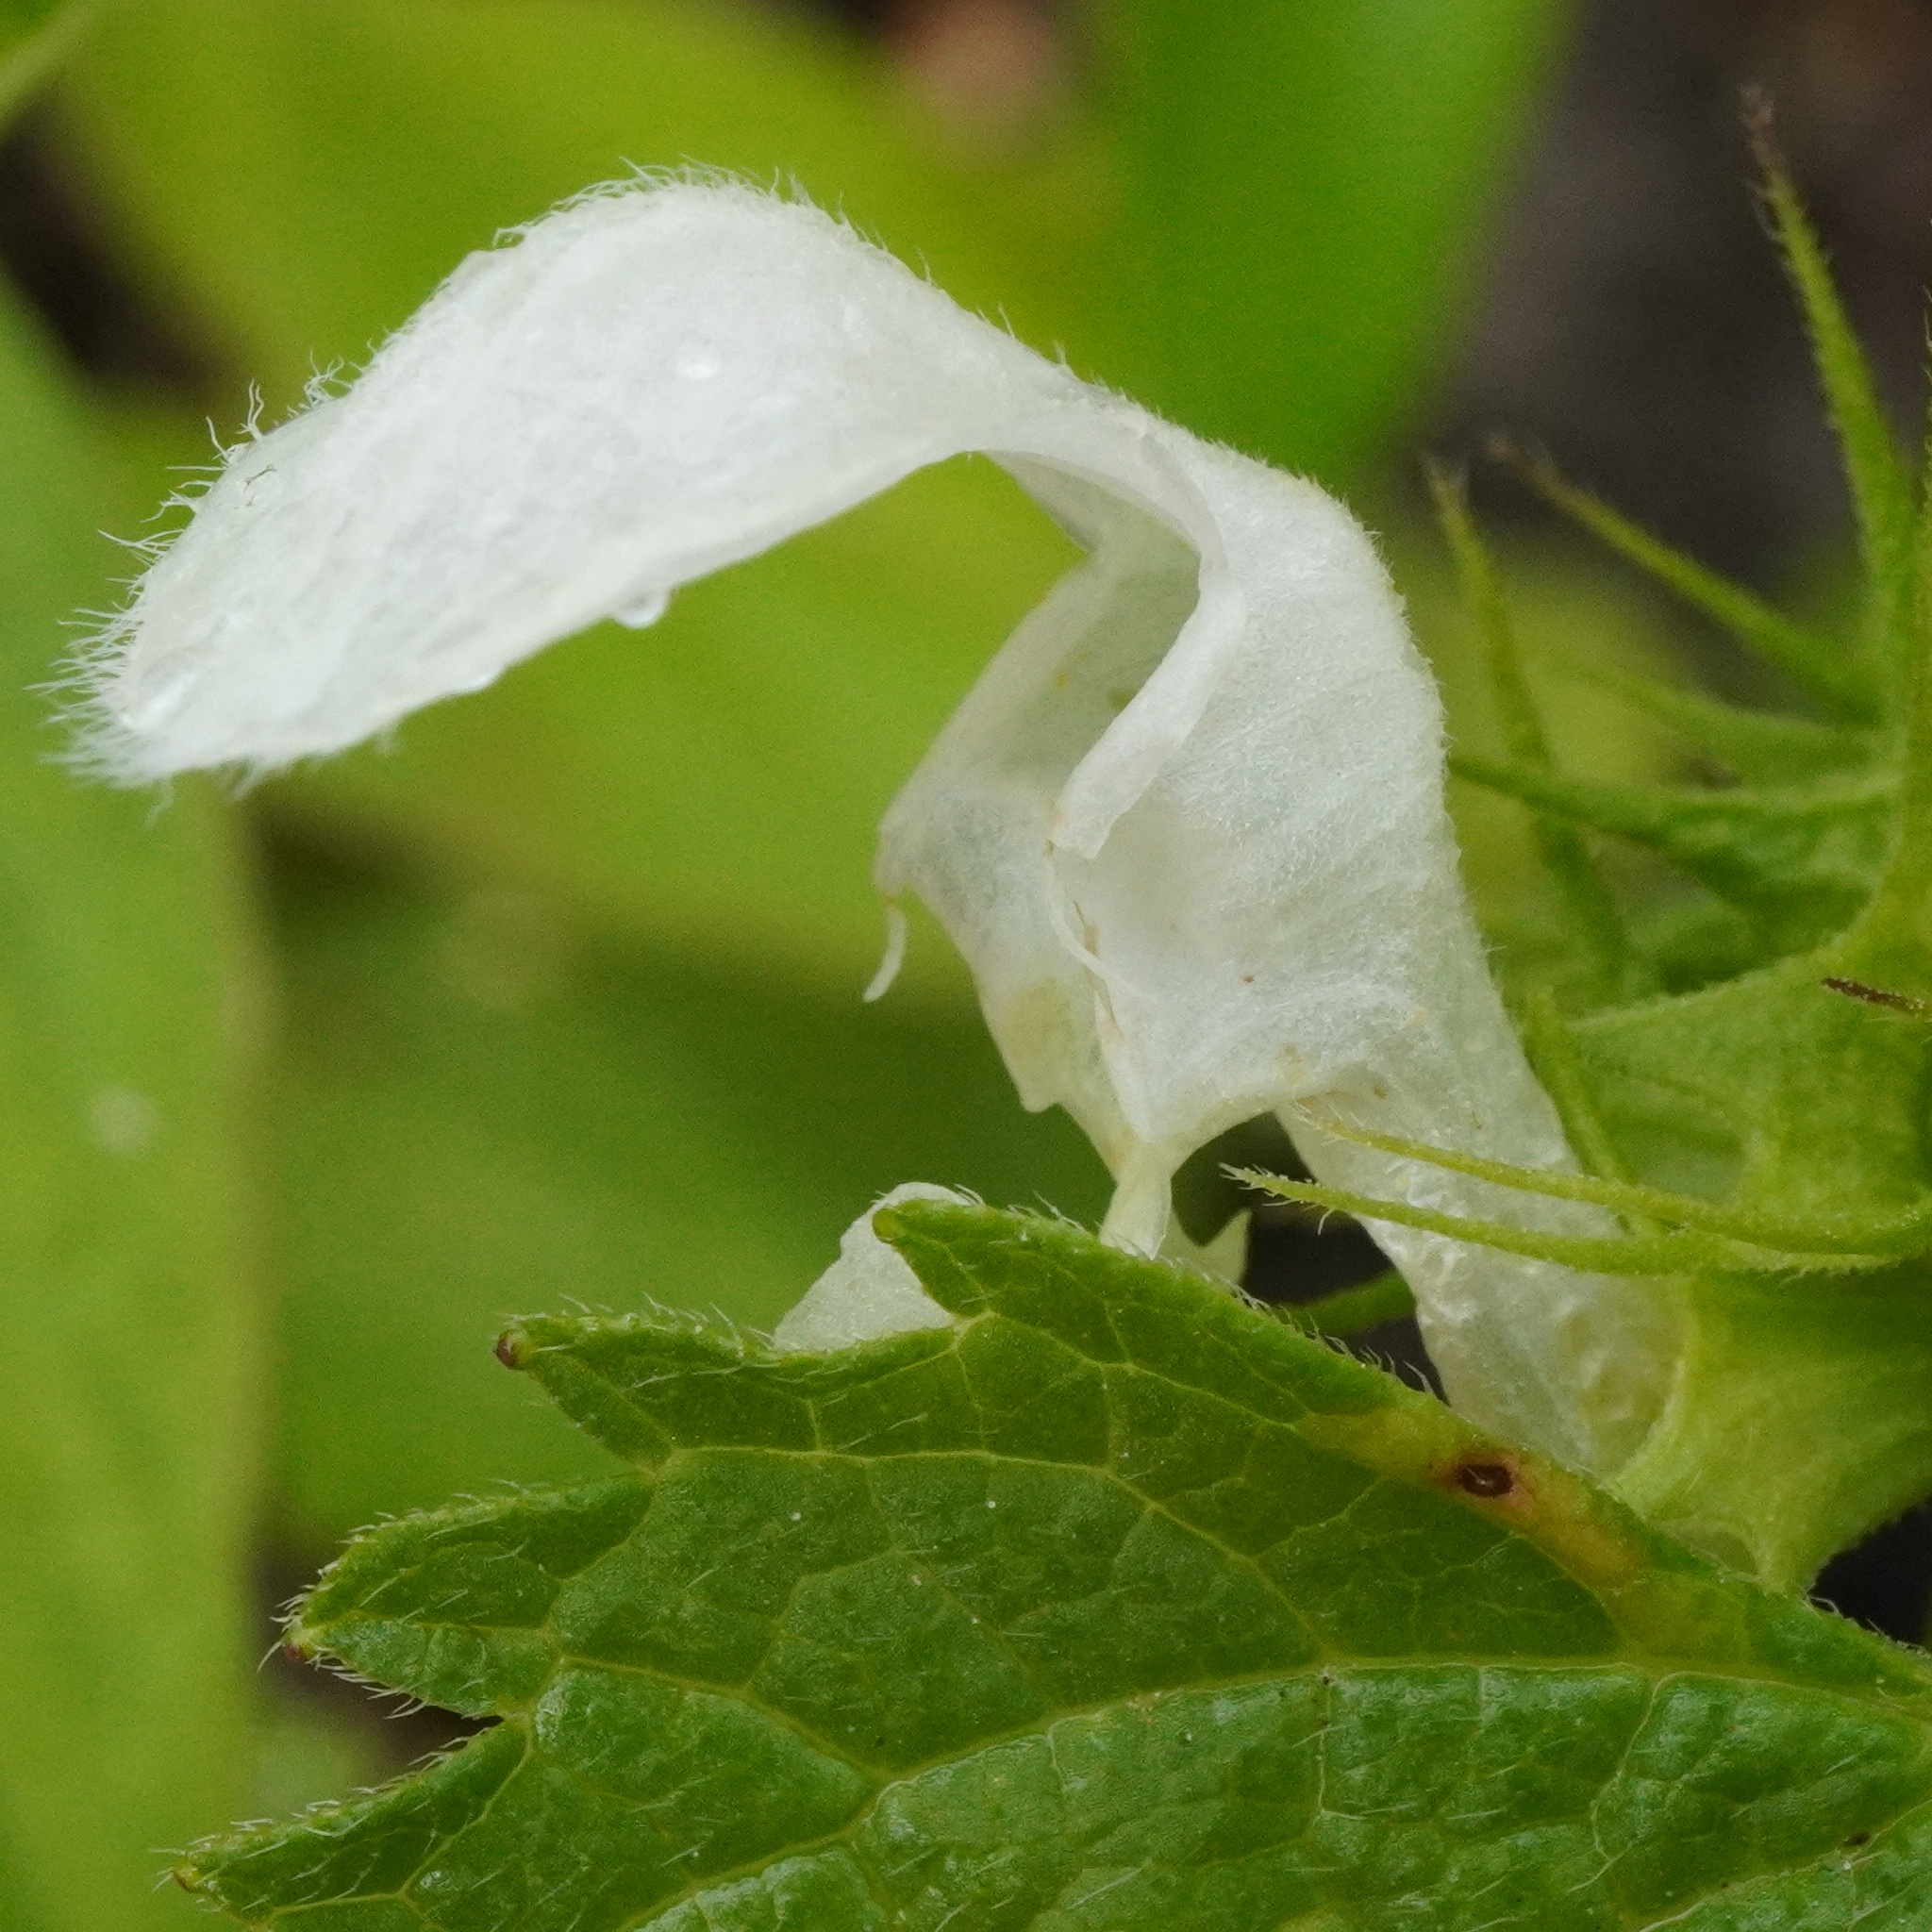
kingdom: Plantae
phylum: Tracheophyta
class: Magnoliopsida
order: Lamiales
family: Lamiaceae
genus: Lamium
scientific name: Lamium album
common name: White dead-nettle
